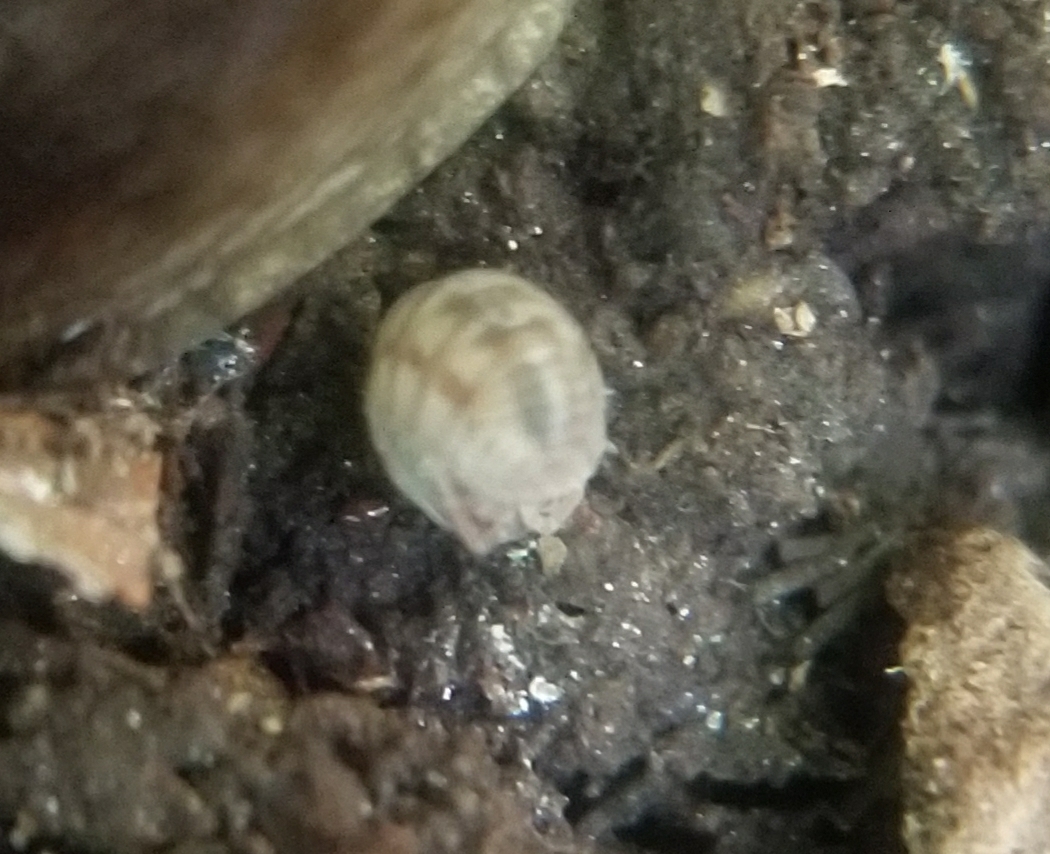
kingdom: Animalia
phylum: Arthropoda
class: Malacostraca
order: Isopoda
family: Armadillidiidae
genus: Armadillidium
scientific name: Armadillidium nasatum
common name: Isopod
